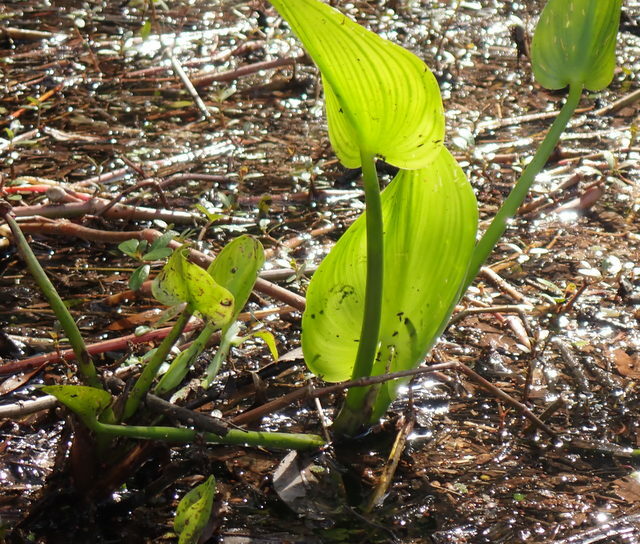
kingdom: Plantae
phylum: Tracheophyta
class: Liliopsida
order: Commelinales
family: Pontederiaceae
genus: Pontederia
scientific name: Pontederia cordata
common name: Pickerelweed
